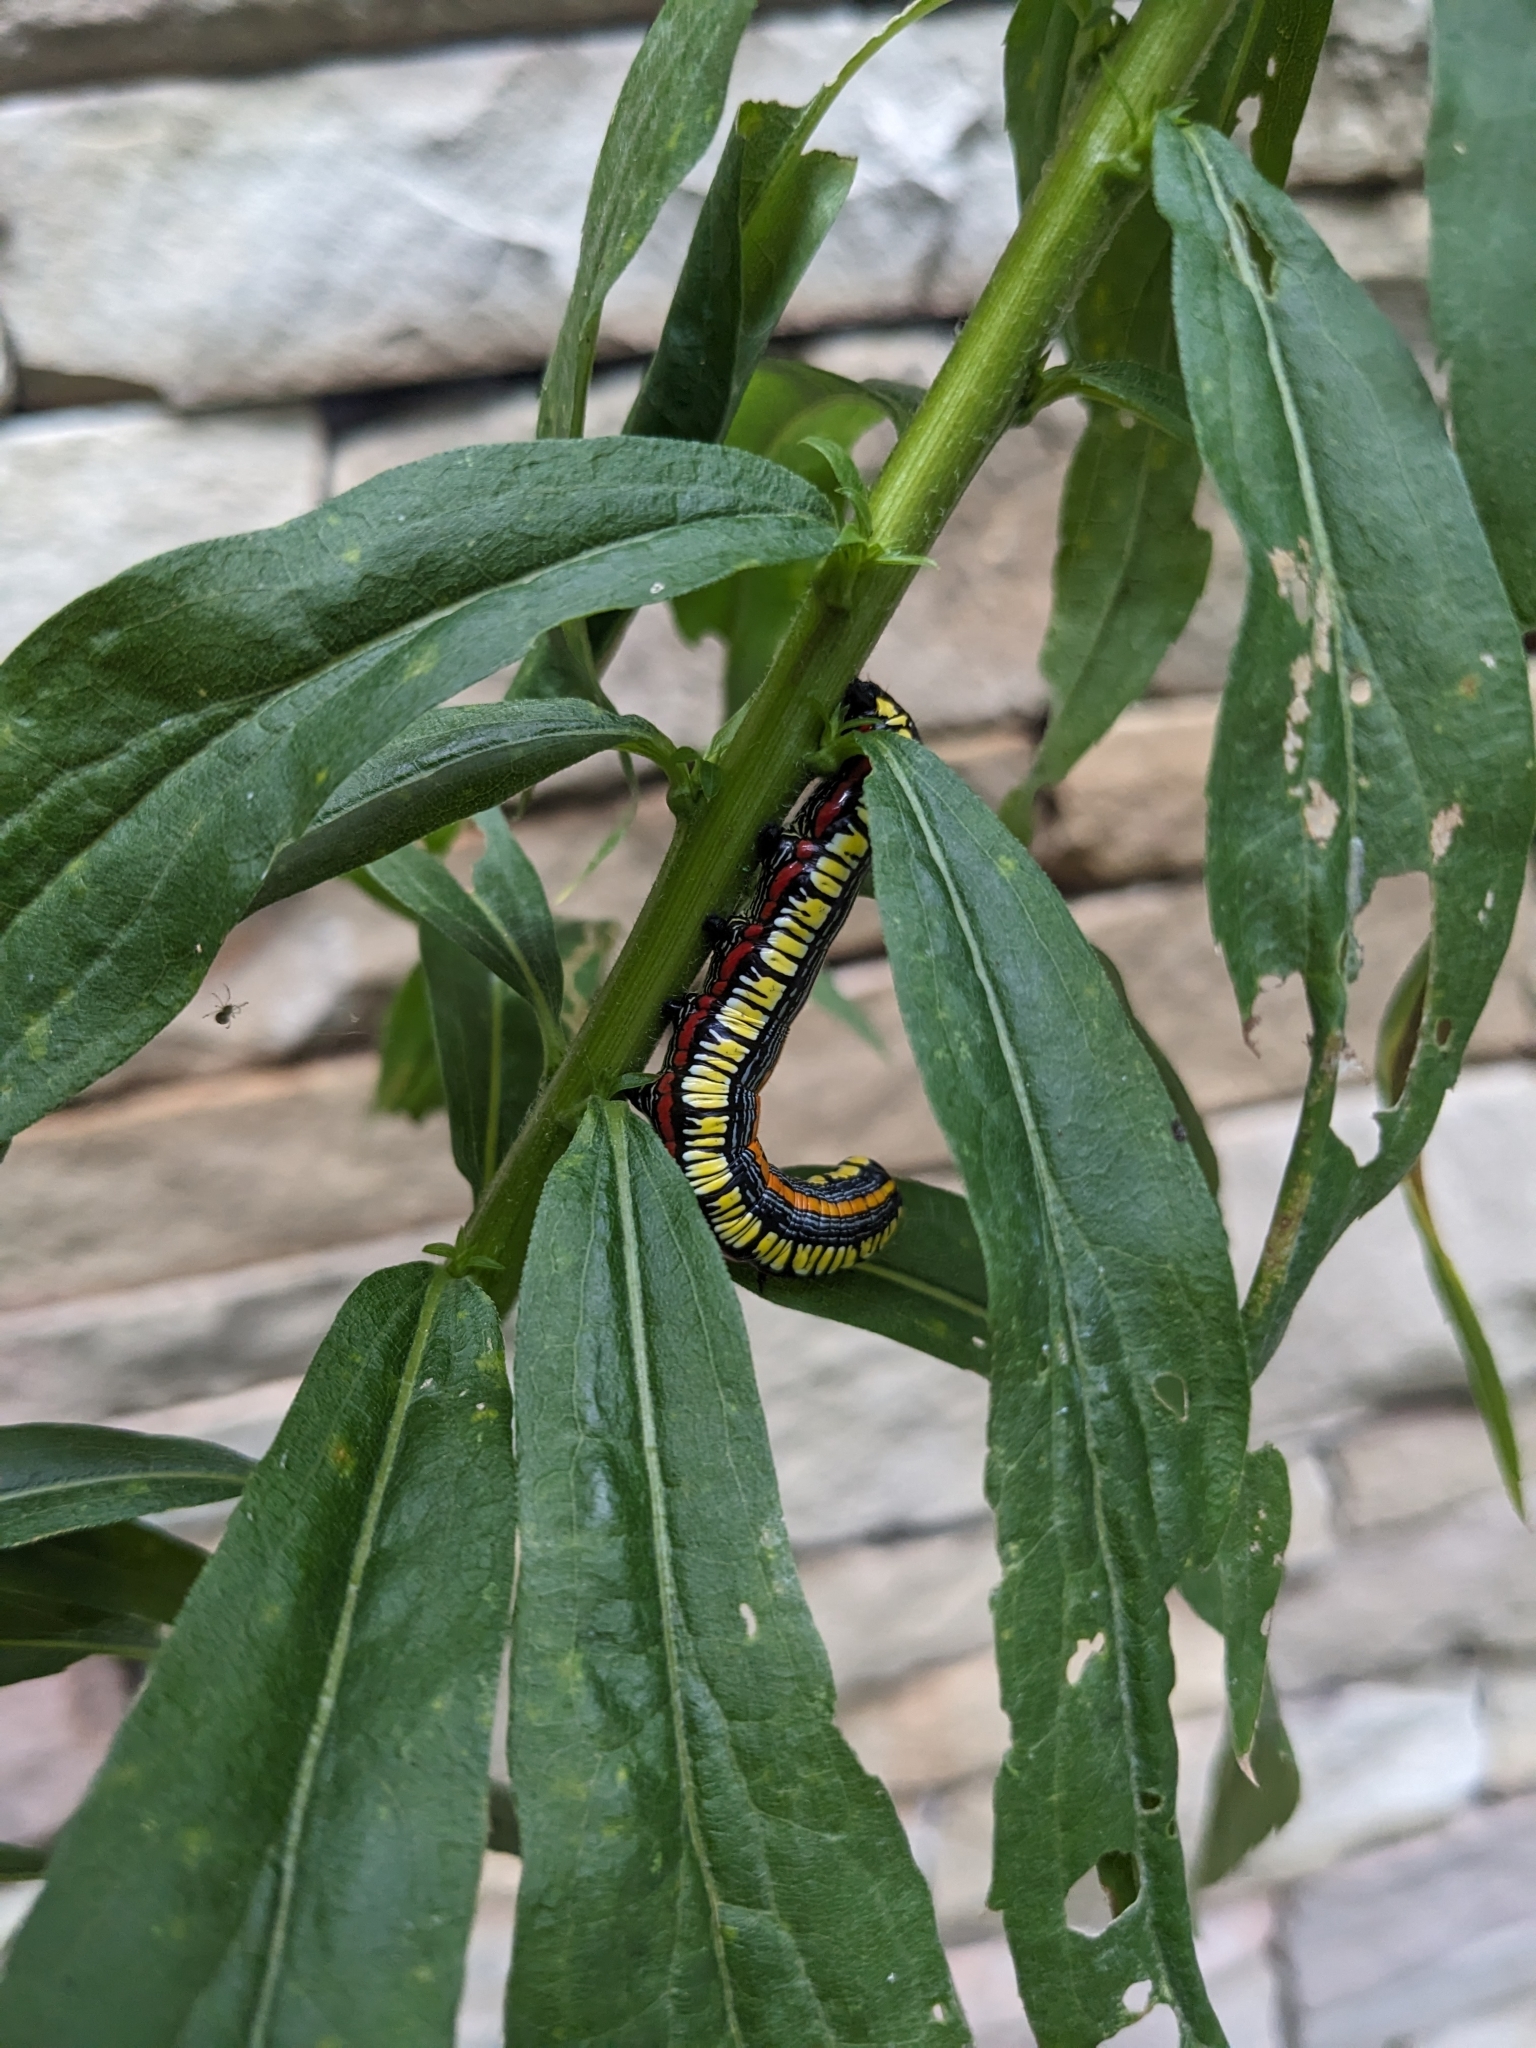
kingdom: Animalia
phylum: Arthropoda
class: Insecta
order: Lepidoptera
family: Noctuidae
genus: Cucullia
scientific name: Cucullia convexipennis
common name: Brown-hooded owlet
